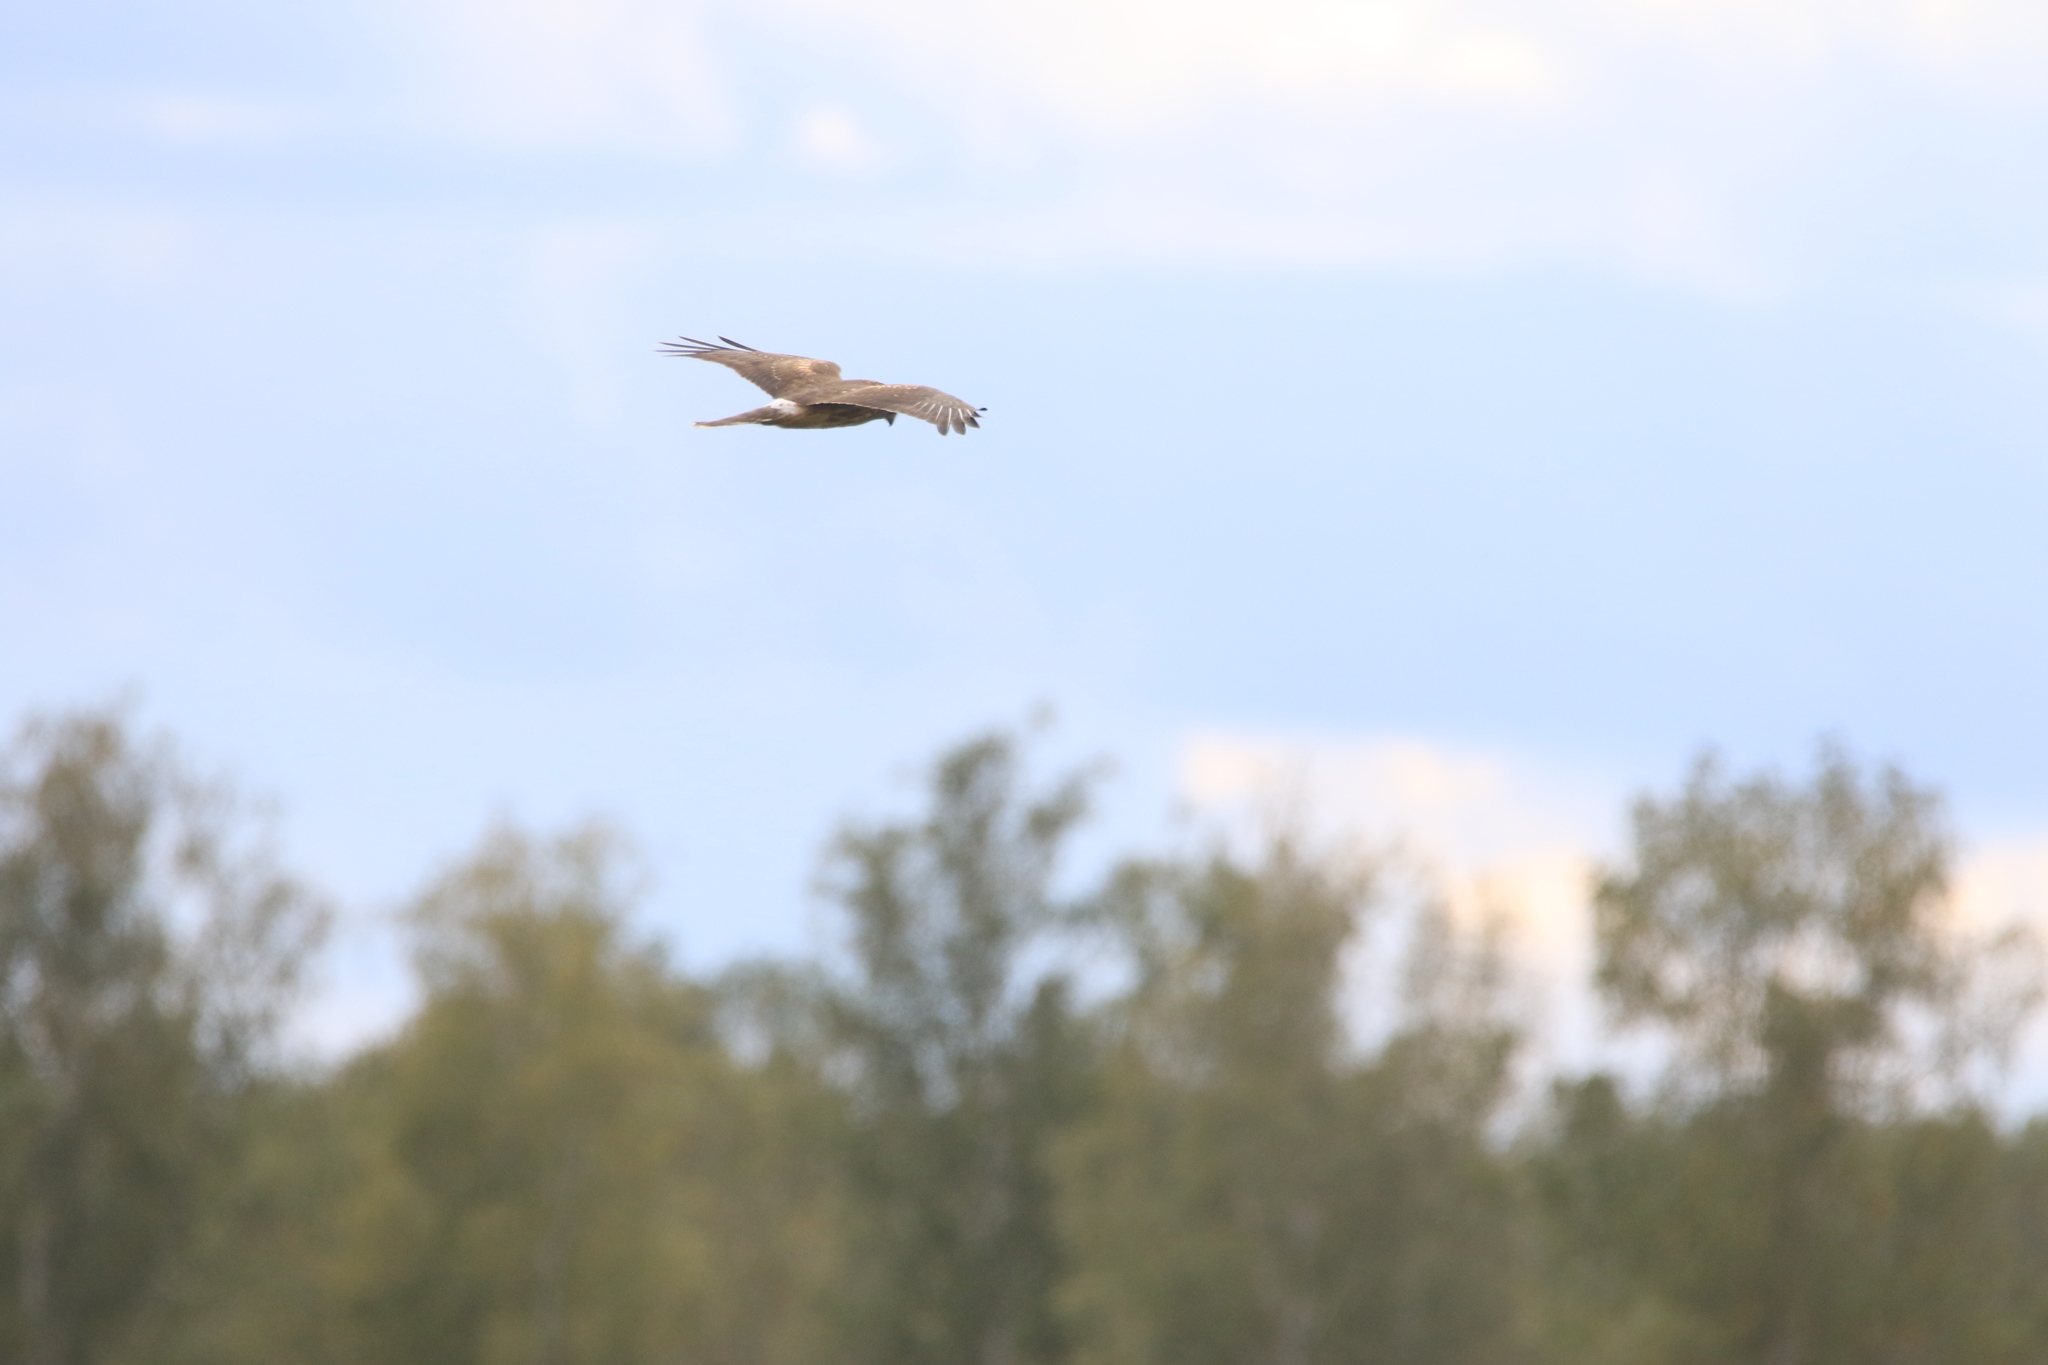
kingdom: Animalia
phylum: Chordata
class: Aves
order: Accipitriformes
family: Accipitridae
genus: Circus
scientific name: Circus cyaneus
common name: Hen harrier
